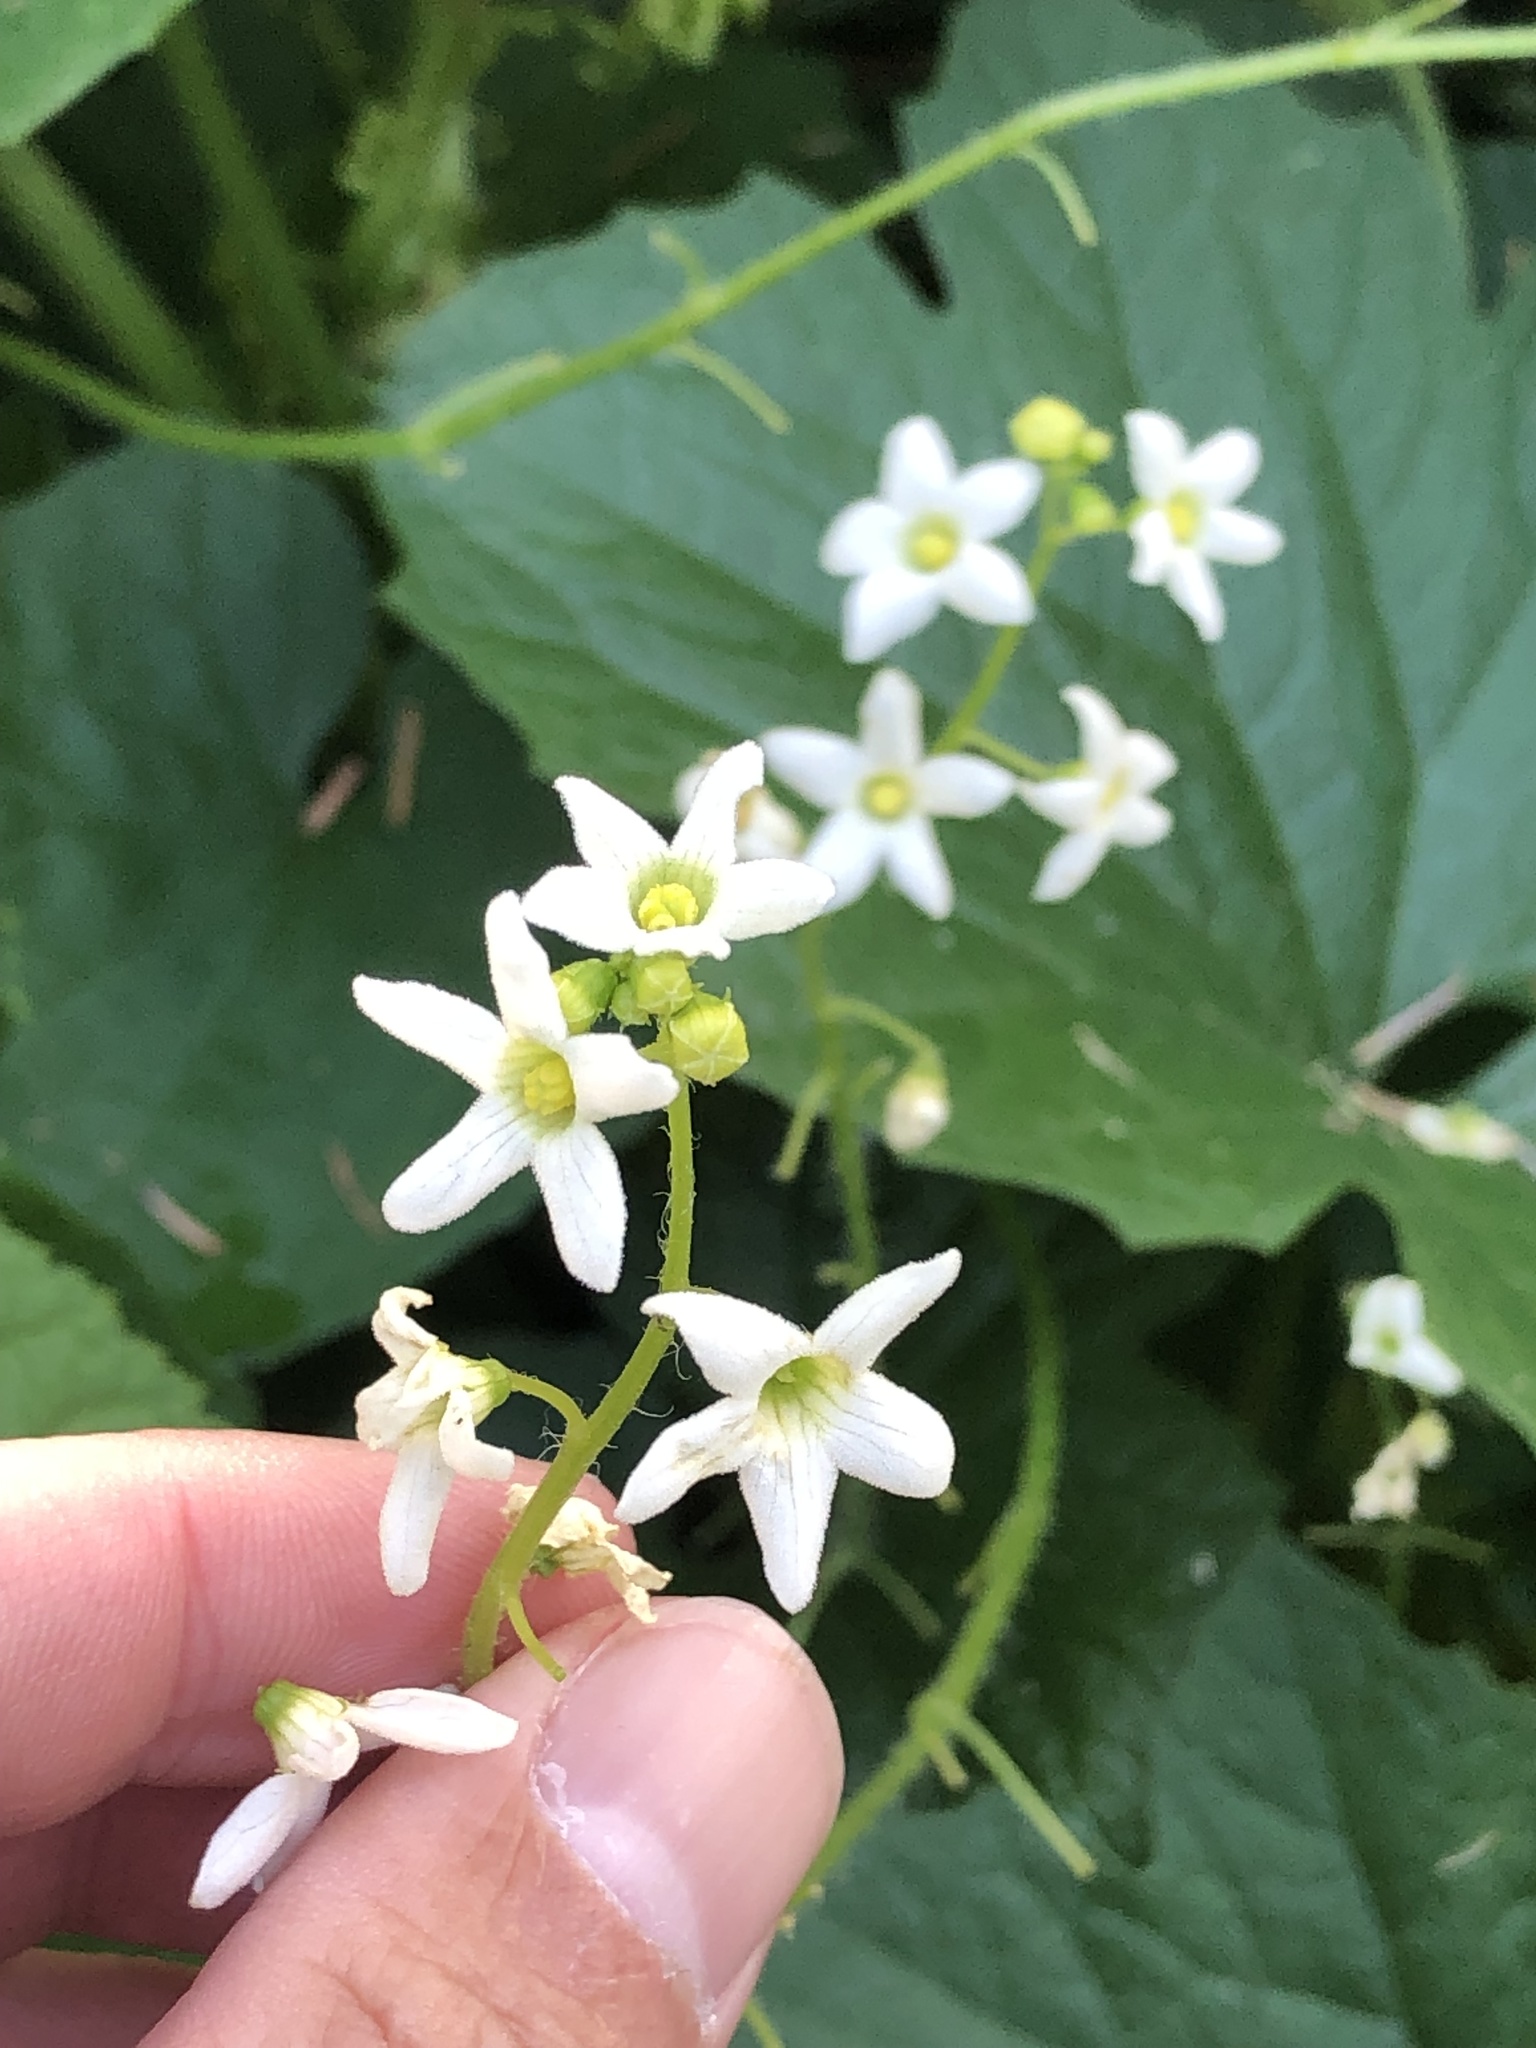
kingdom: Plantae
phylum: Tracheophyta
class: Magnoliopsida
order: Cucurbitales
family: Cucurbitaceae
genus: Marah
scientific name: Marah oregana
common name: Coastal manroot
